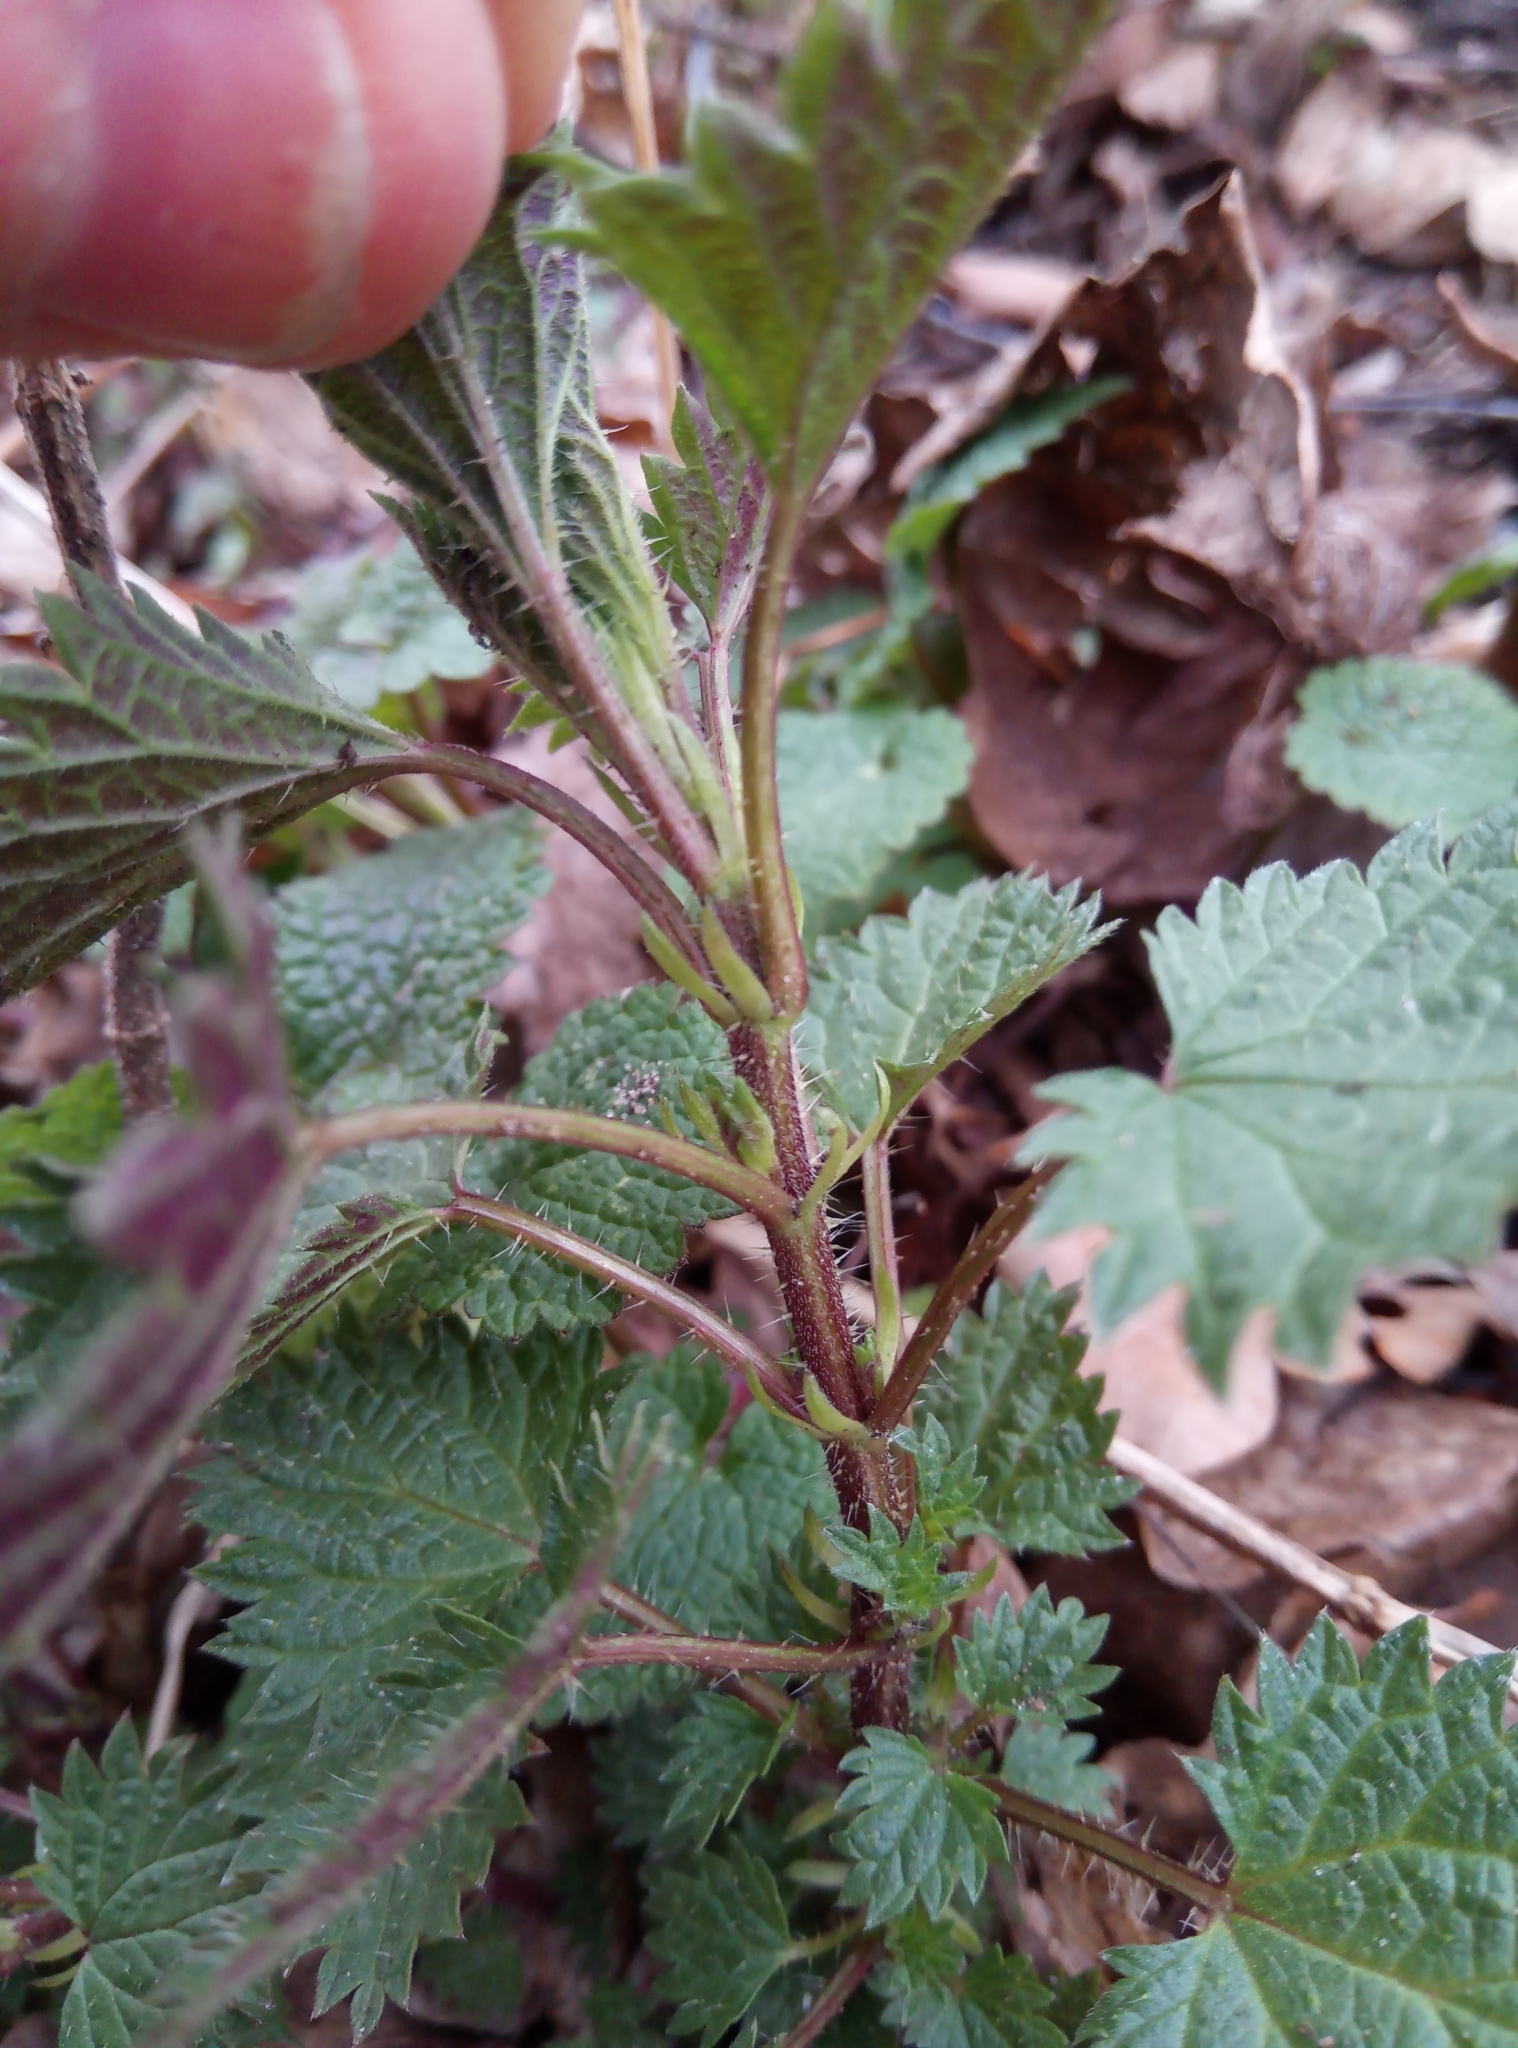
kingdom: Plantae
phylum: Tracheophyta
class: Magnoliopsida
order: Rosales
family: Urticaceae
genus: Urtica
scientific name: Urtica dioica
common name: Common nettle
